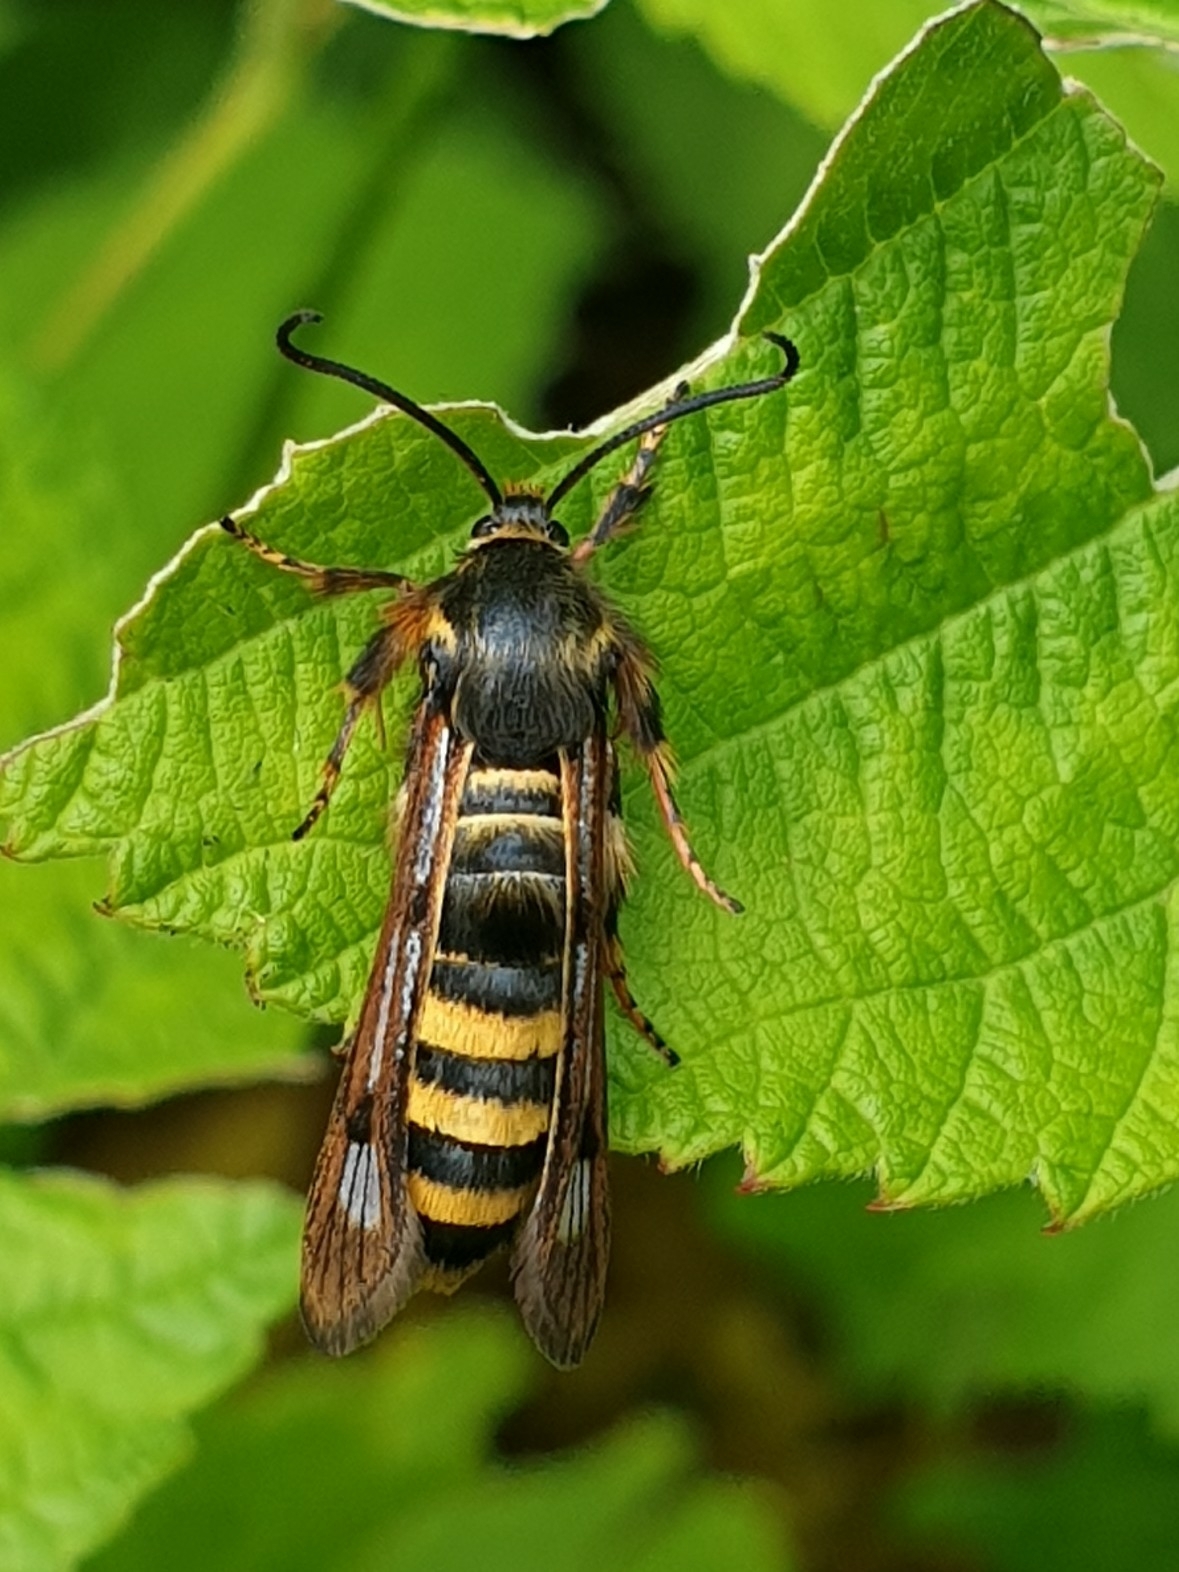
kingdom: Animalia
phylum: Arthropoda
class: Insecta
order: Lepidoptera
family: Sesiidae
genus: Pennisetia
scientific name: Pennisetia hylaeiformis
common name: Raspberry clearwing
